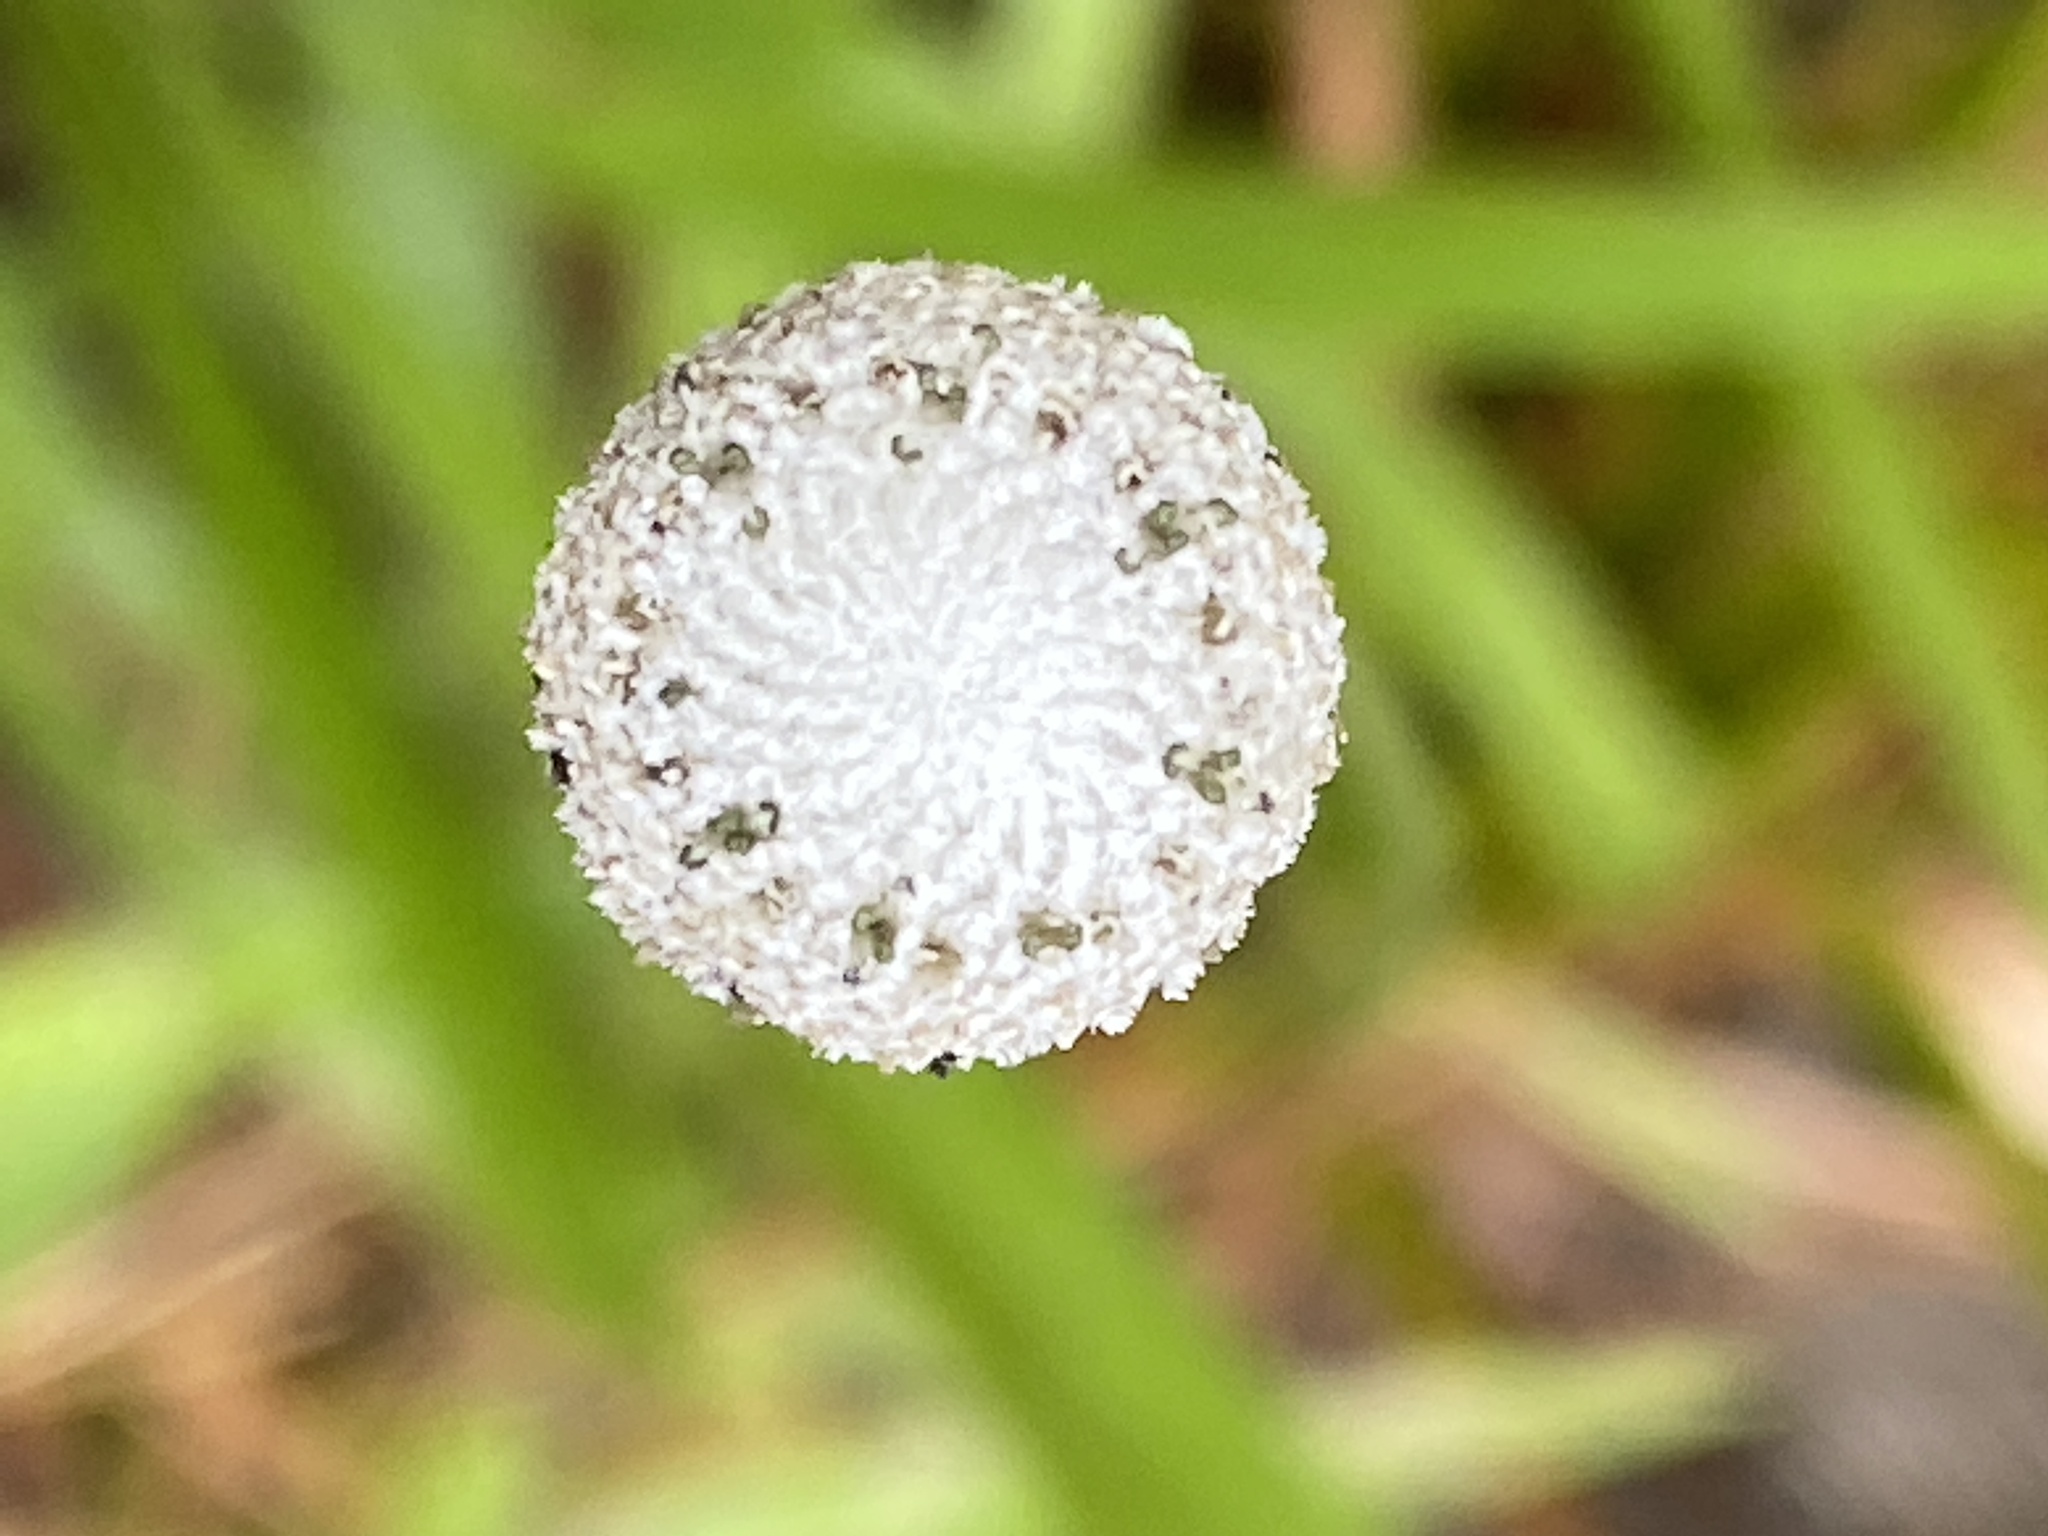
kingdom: Plantae
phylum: Tracheophyta
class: Liliopsida
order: Poales
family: Eriocaulaceae
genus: Eriocaulon
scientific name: Eriocaulon decangulare
